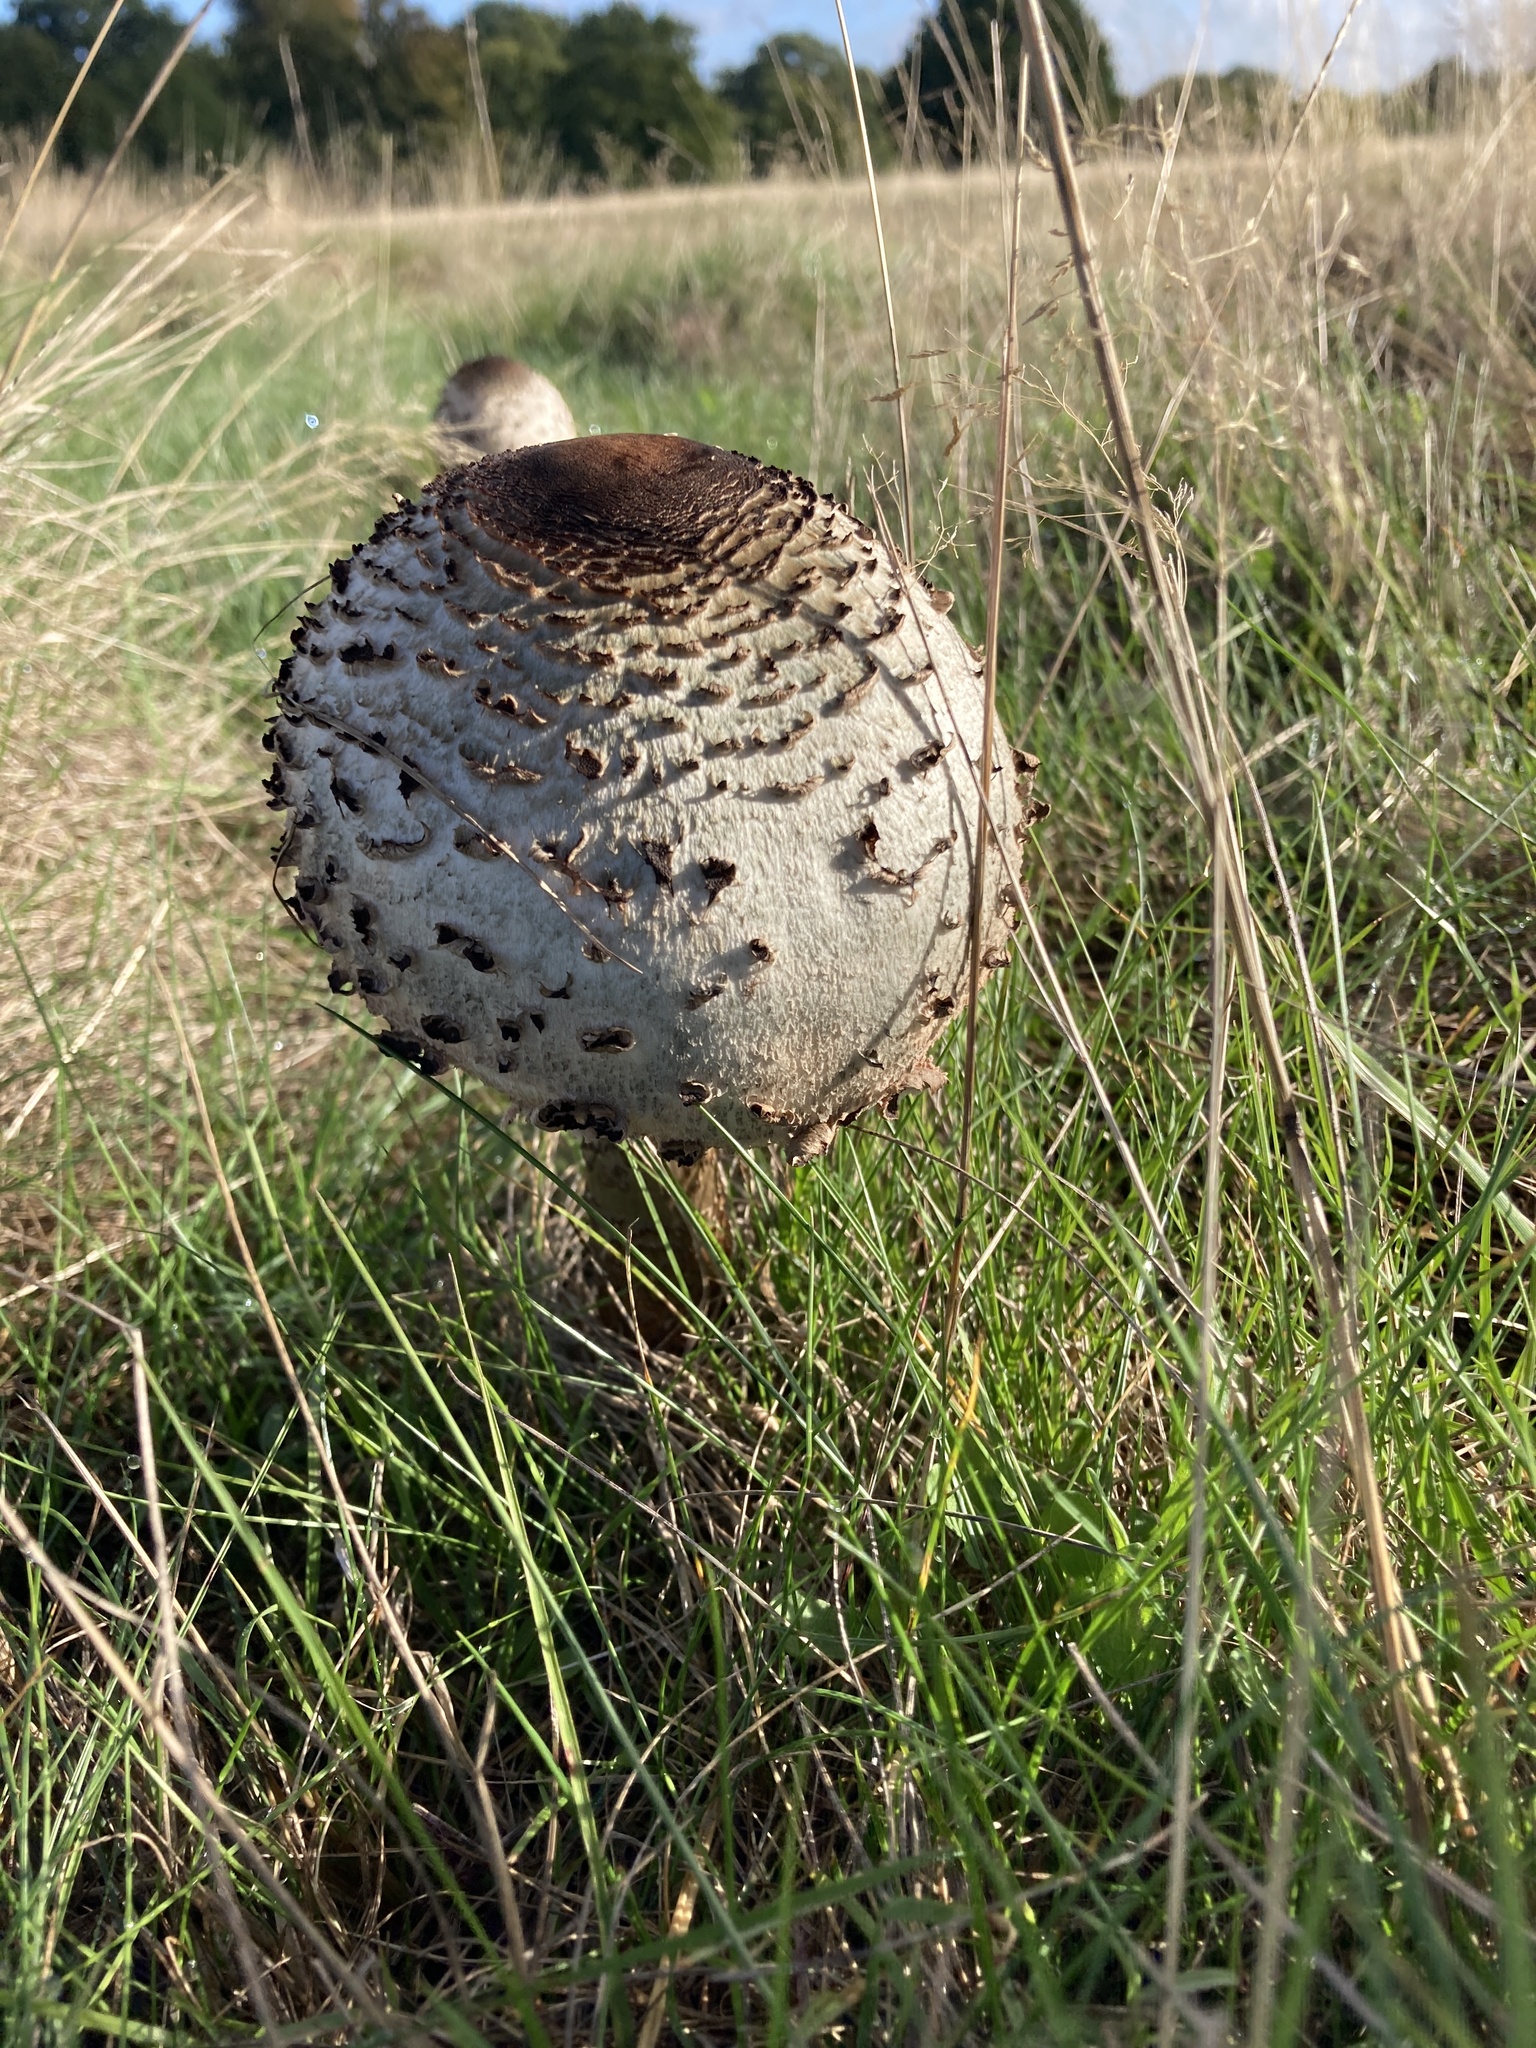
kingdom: Fungi
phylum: Basidiomycota
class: Agaricomycetes
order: Agaricales
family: Agaricaceae
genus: Macrolepiota
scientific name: Macrolepiota procera
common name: Parasol
